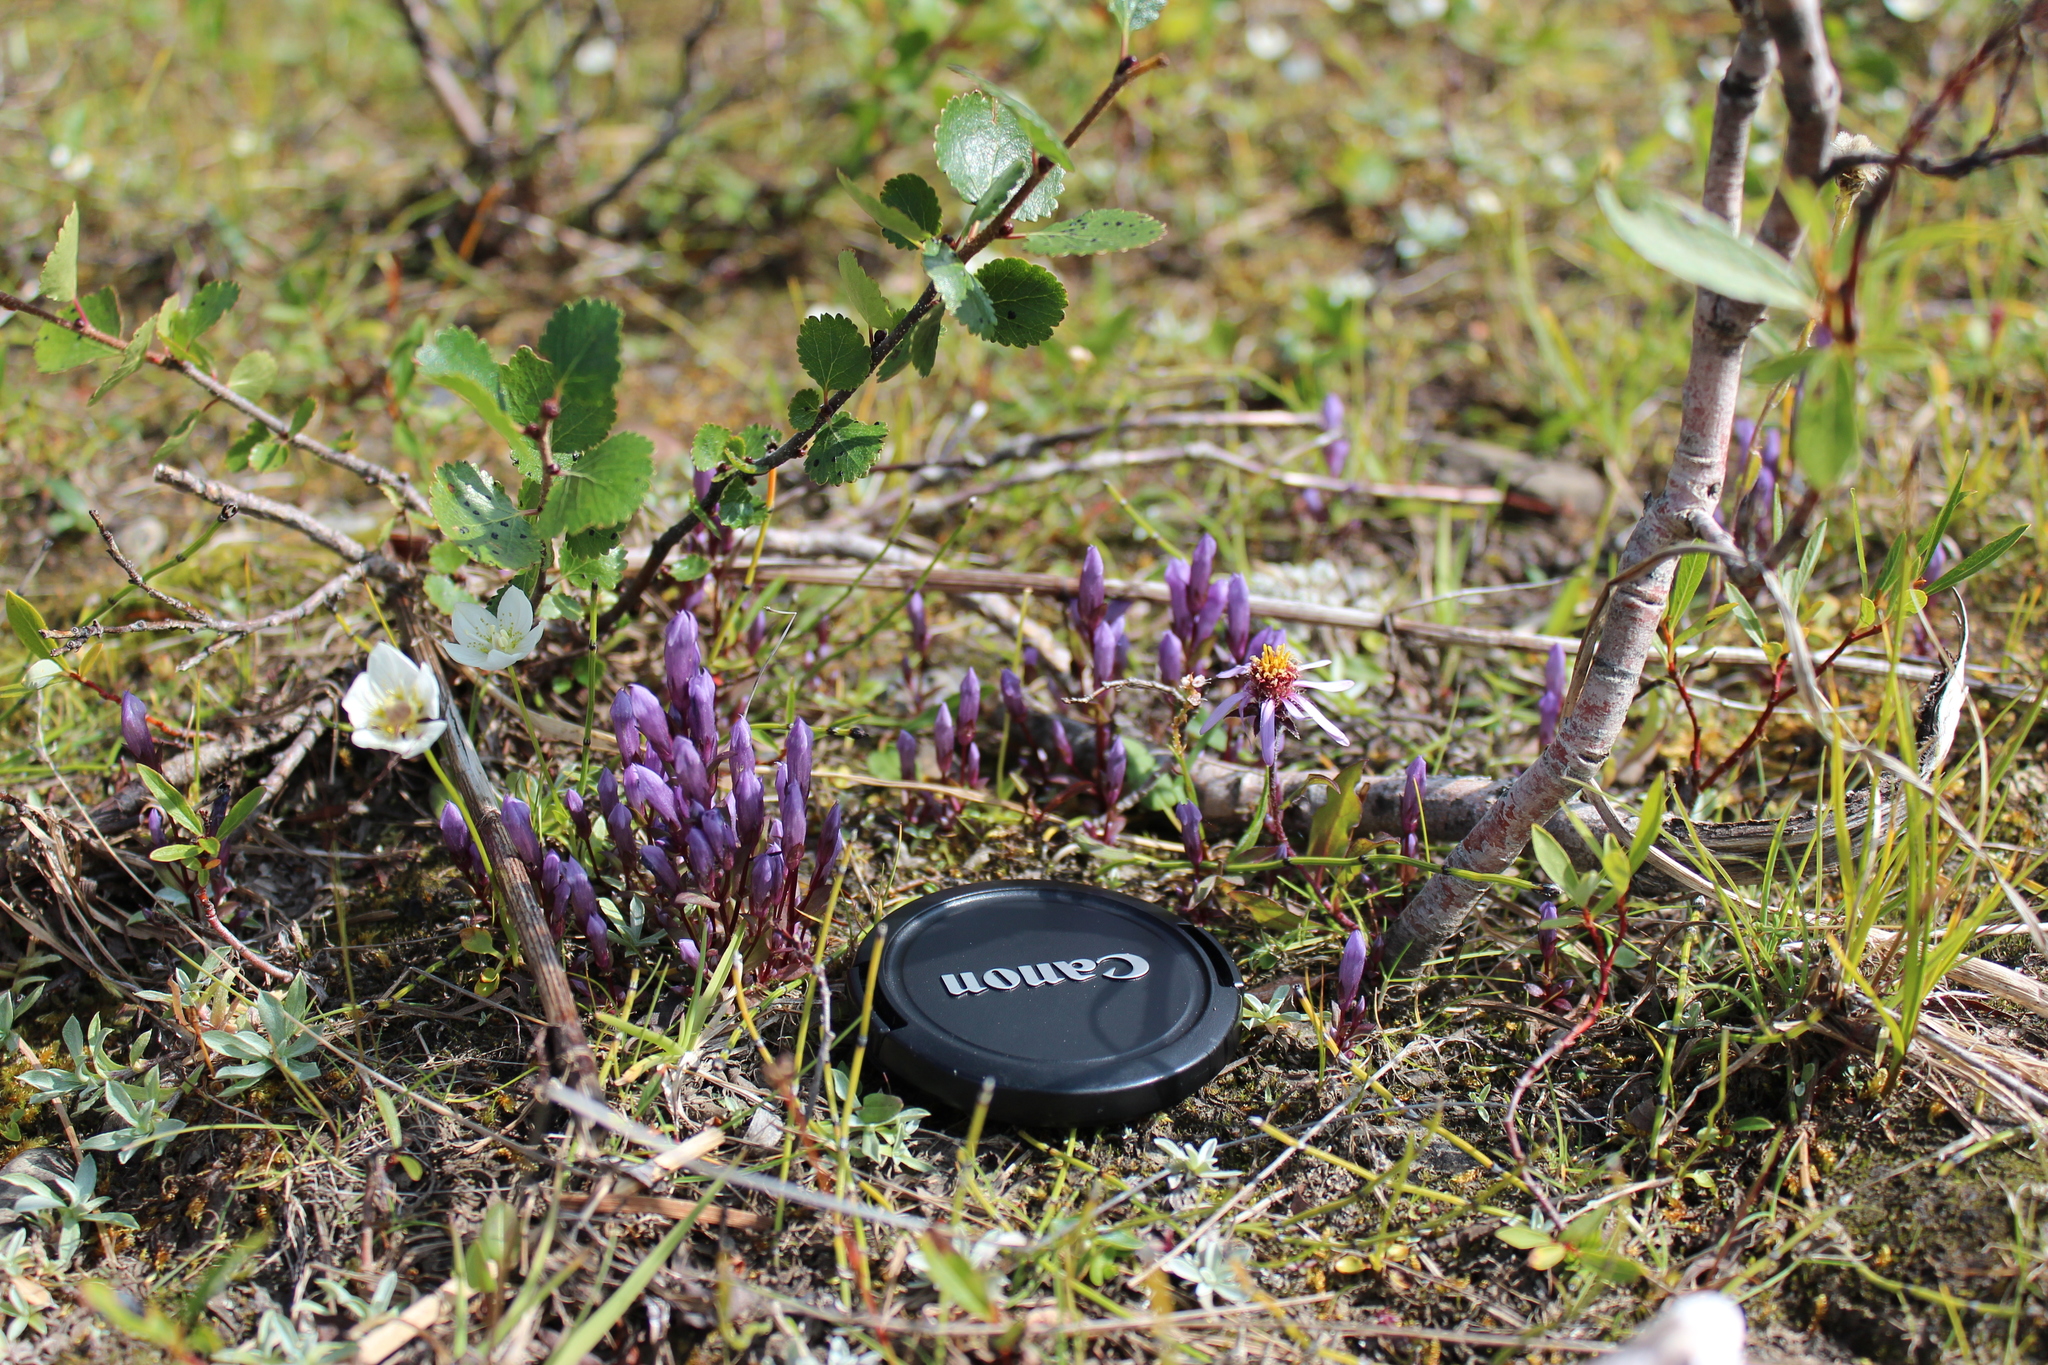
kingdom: Plantae
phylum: Tracheophyta
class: Magnoliopsida
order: Celastrales
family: Parnassiaceae
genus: Parnassia
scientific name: Parnassia palustris
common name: Grass-of-parnassus
